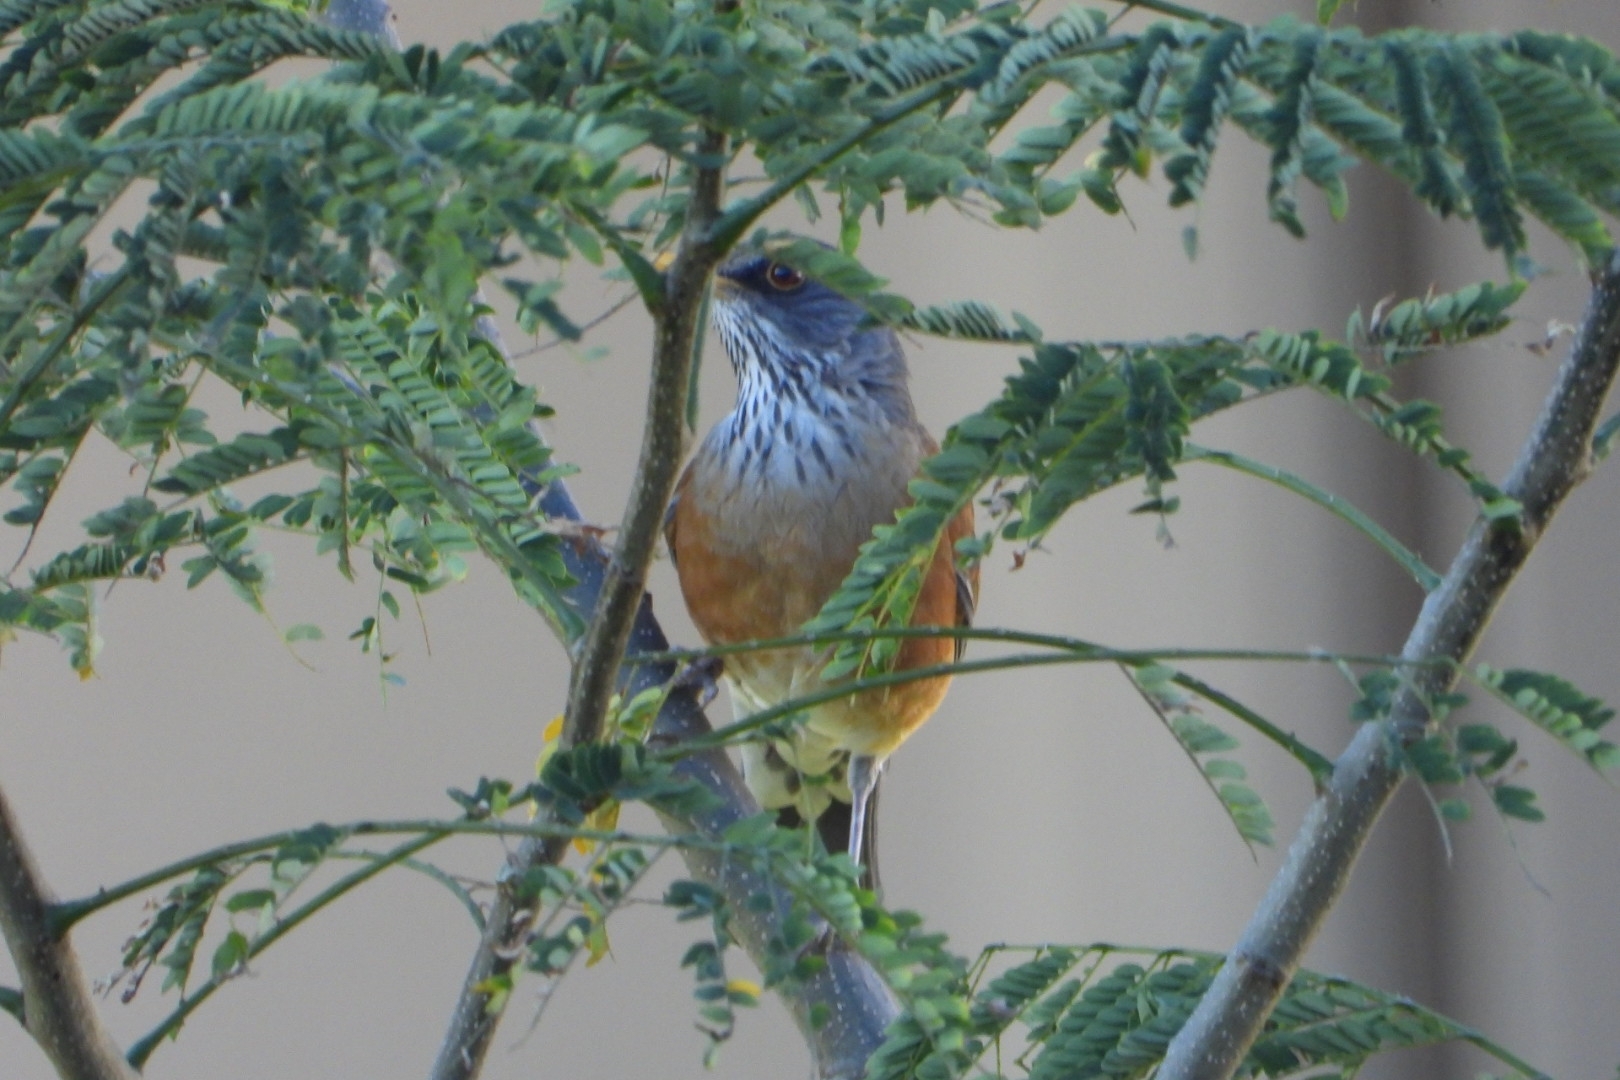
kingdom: Animalia
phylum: Chordata
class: Aves
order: Passeriformes
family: Turdidae
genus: Turdus
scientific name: Turdus rufopalliatus
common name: Rufous-backed robin
